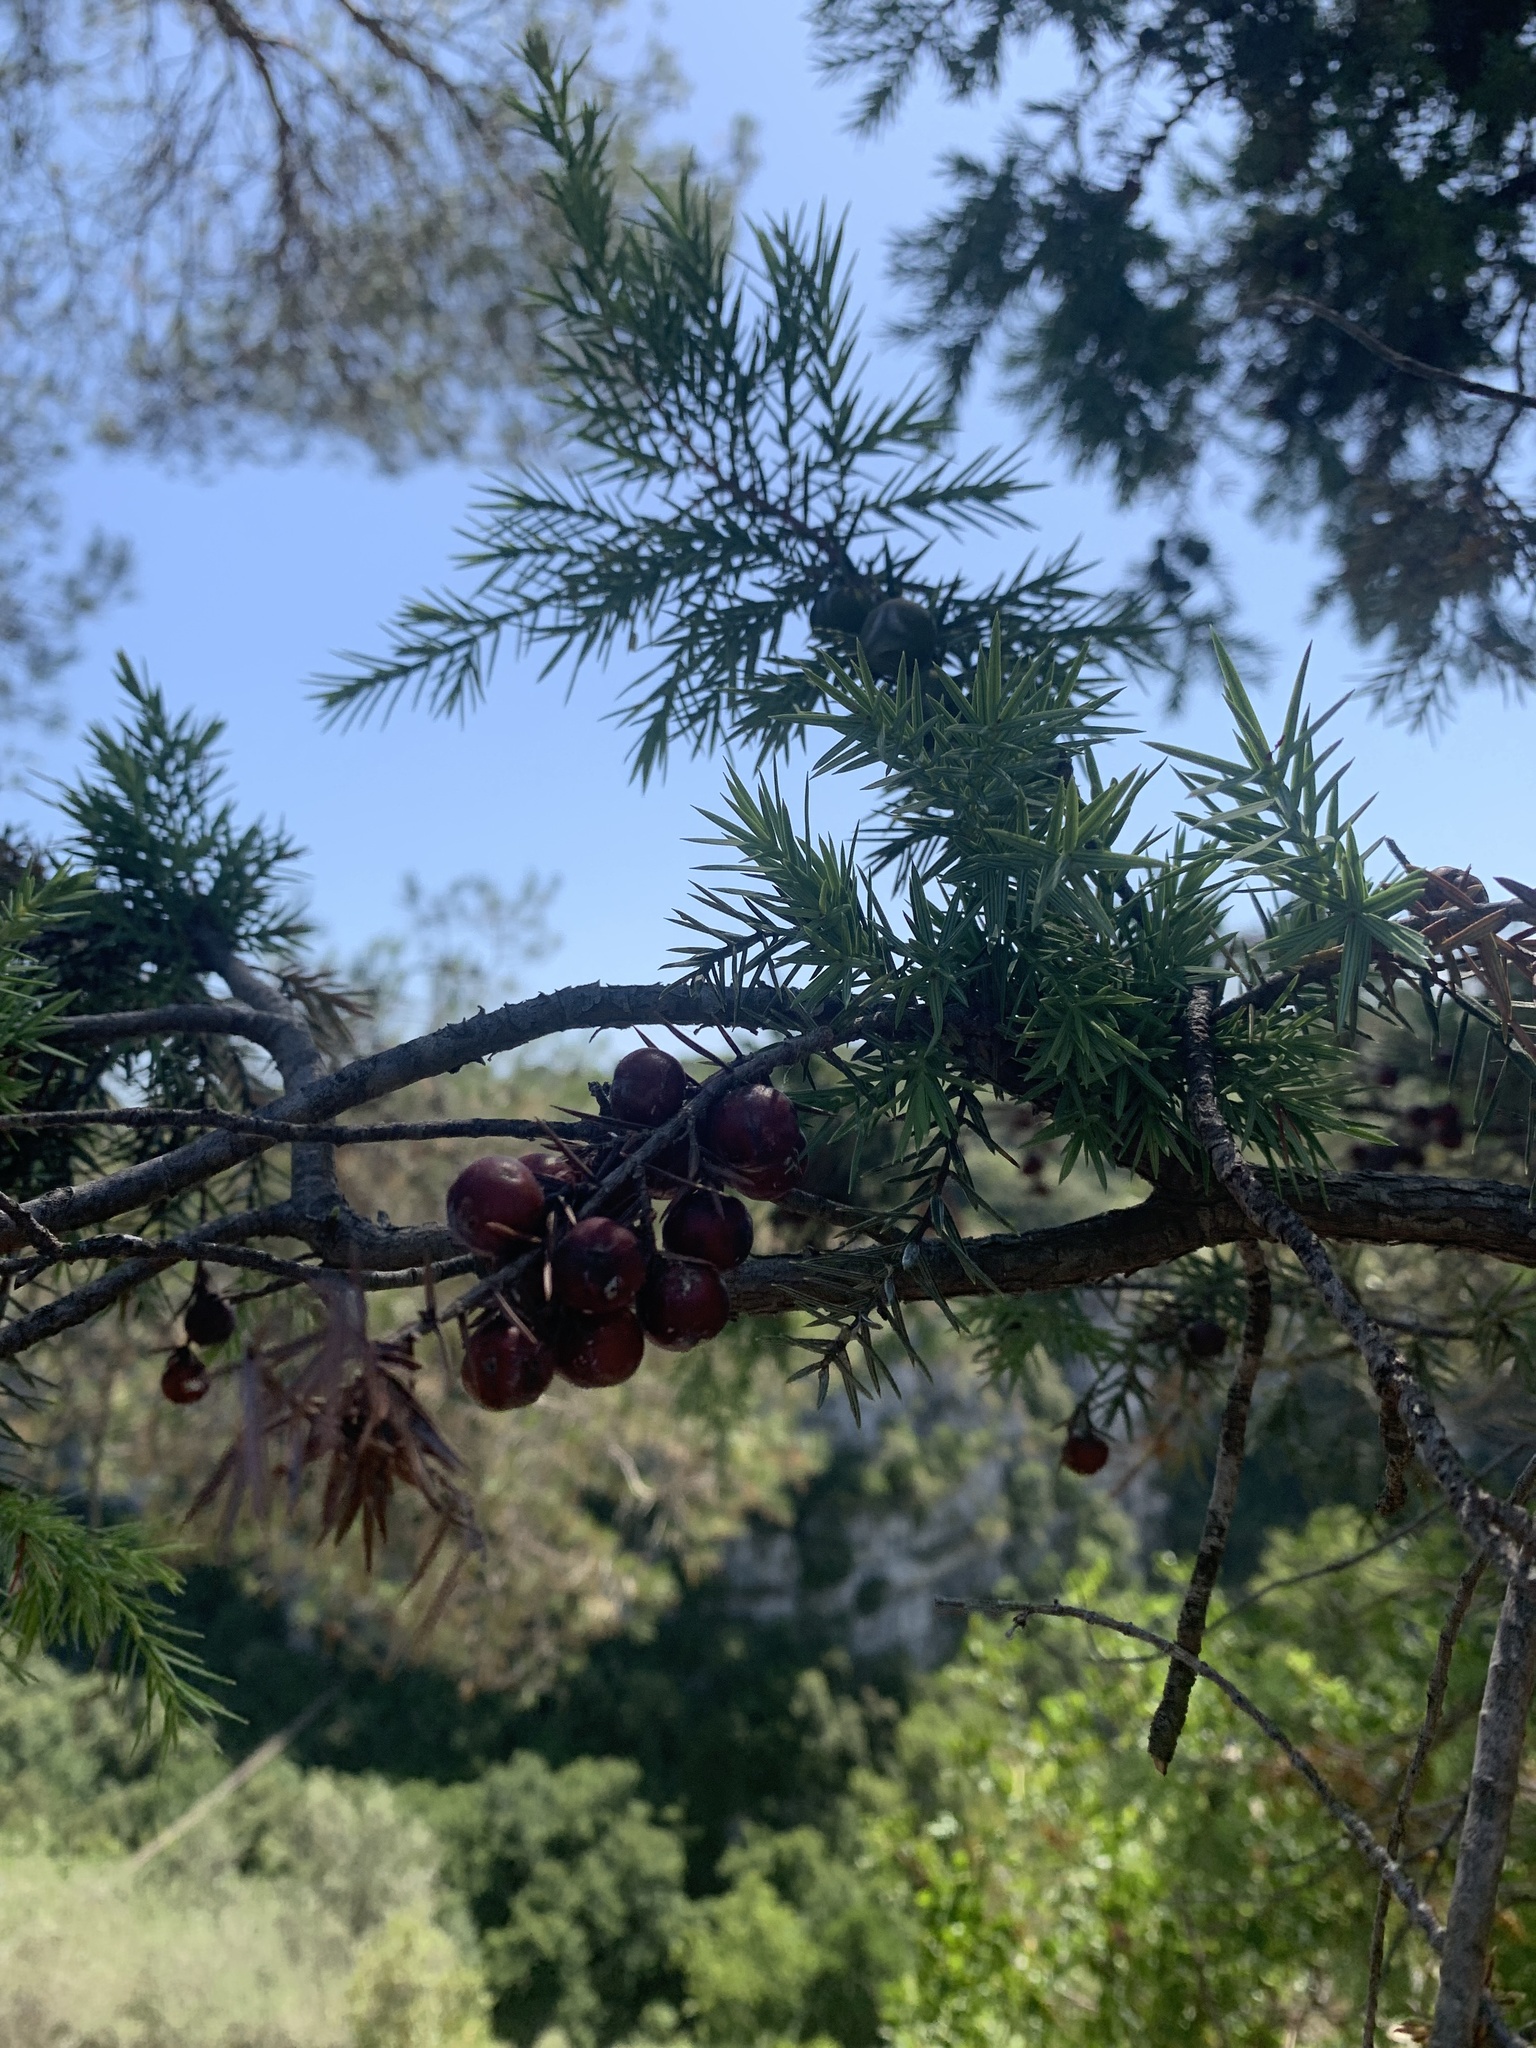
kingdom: Plantae
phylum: Tracheophyta
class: Pinopsida
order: Pinales
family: Cupressaceae
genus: Juniperus
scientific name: Juniperus oxycedrus
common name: Prickly juniper
